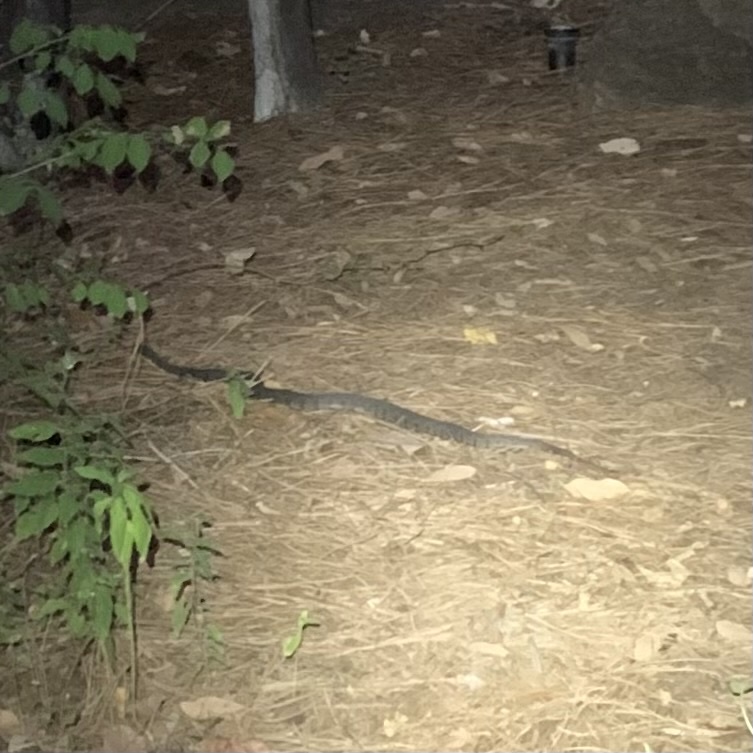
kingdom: Animalia
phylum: Chordata
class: Squamata
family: Colubridae
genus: Nerodia
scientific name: Nerodia erythrogaster
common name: Plainbelly water snake
